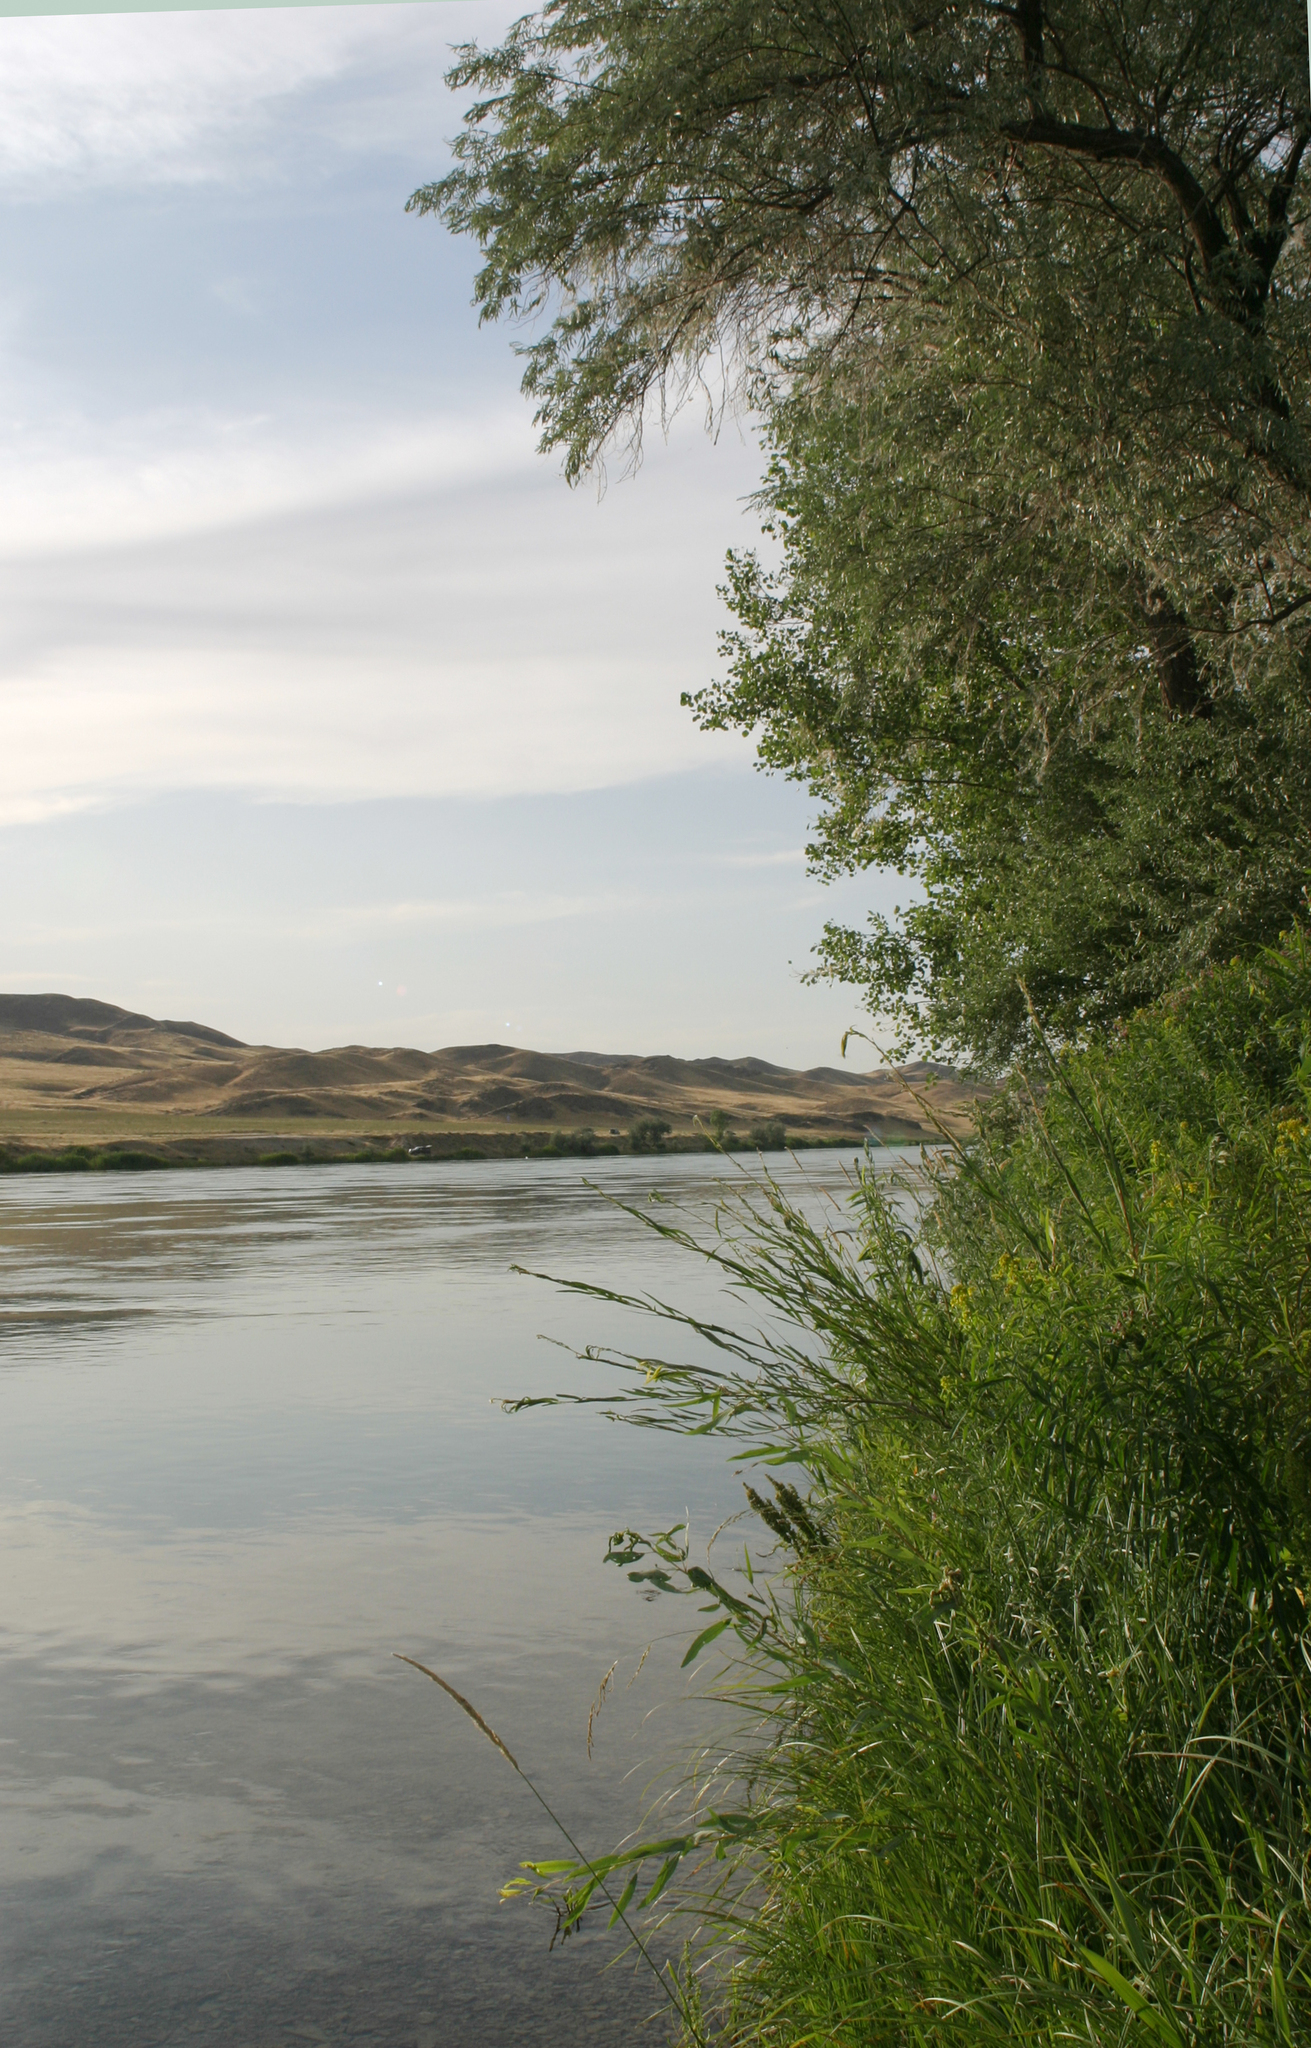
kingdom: Plantae
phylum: Tracheophyta
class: Magnoliopsida
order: Malpighiales
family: Salicaceae
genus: Populus
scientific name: Populus macrocarpa
